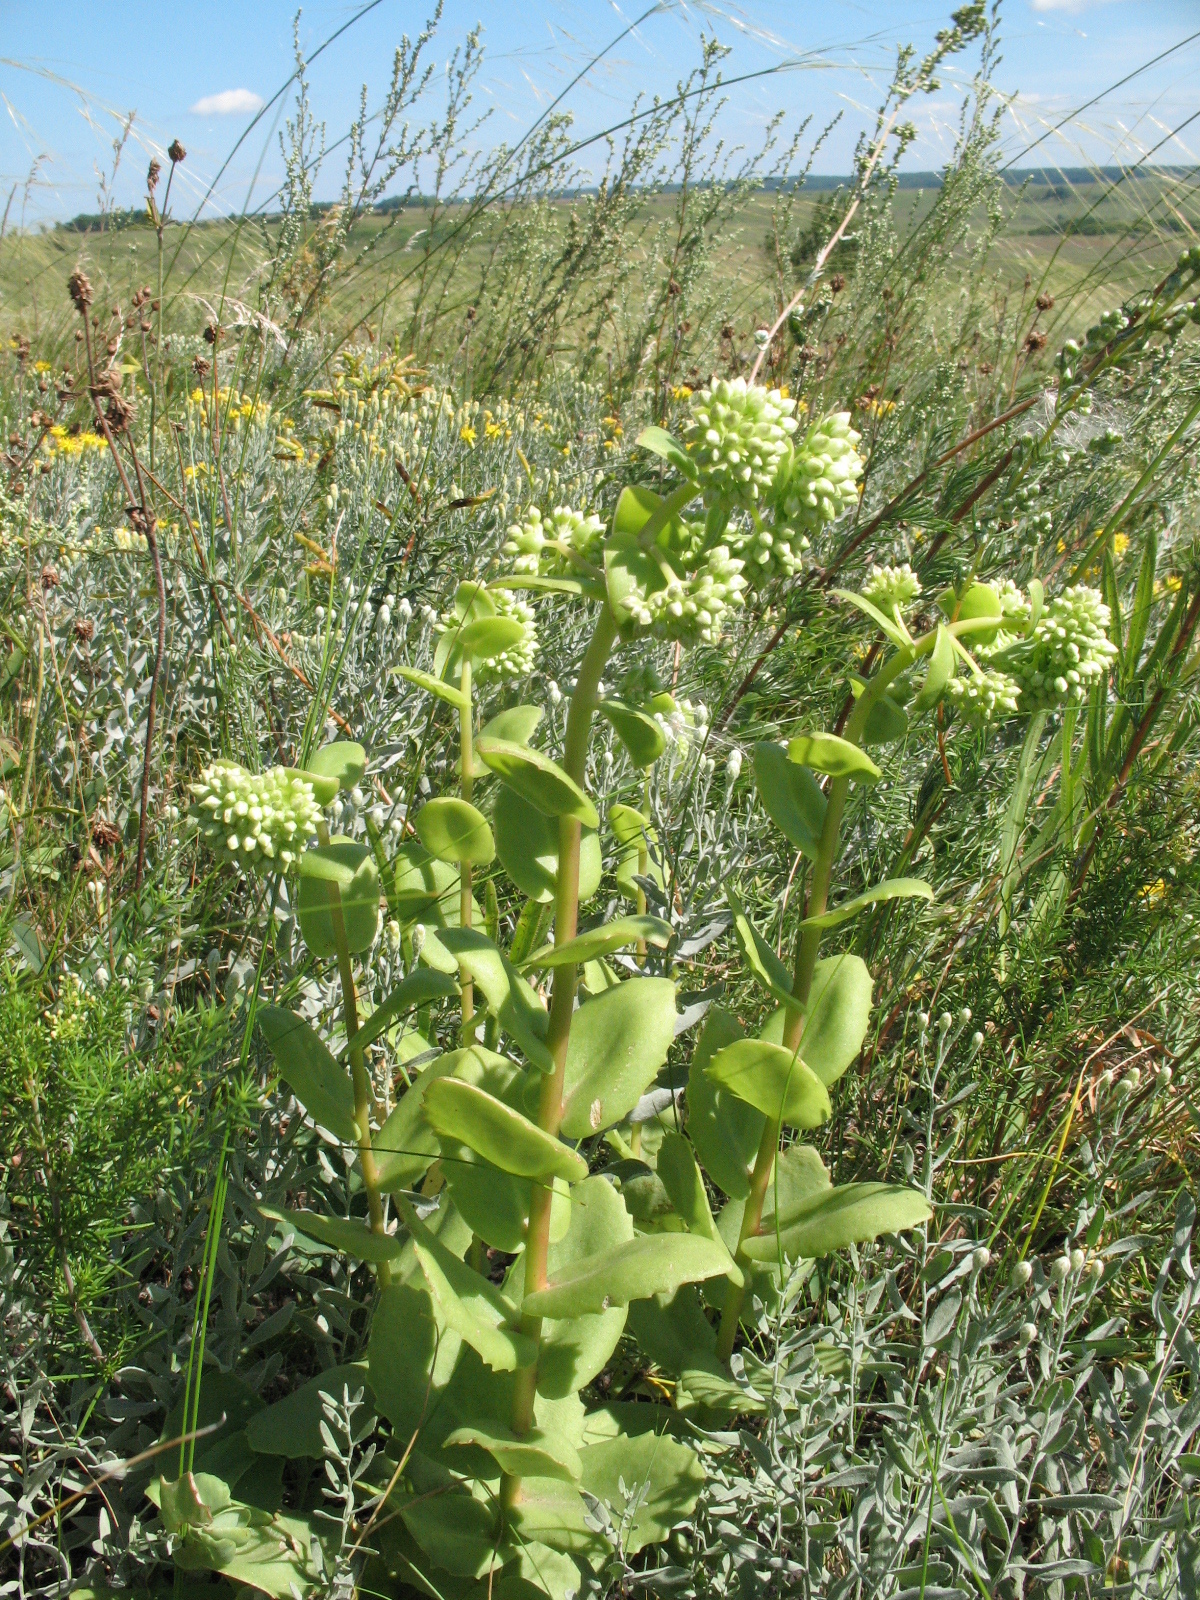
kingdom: Plantae
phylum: Tracheophyta
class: Magnoliopsida
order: Saxifragales
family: Crassulaceae
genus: Hylotelephium
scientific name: Hylotelephium maximum
